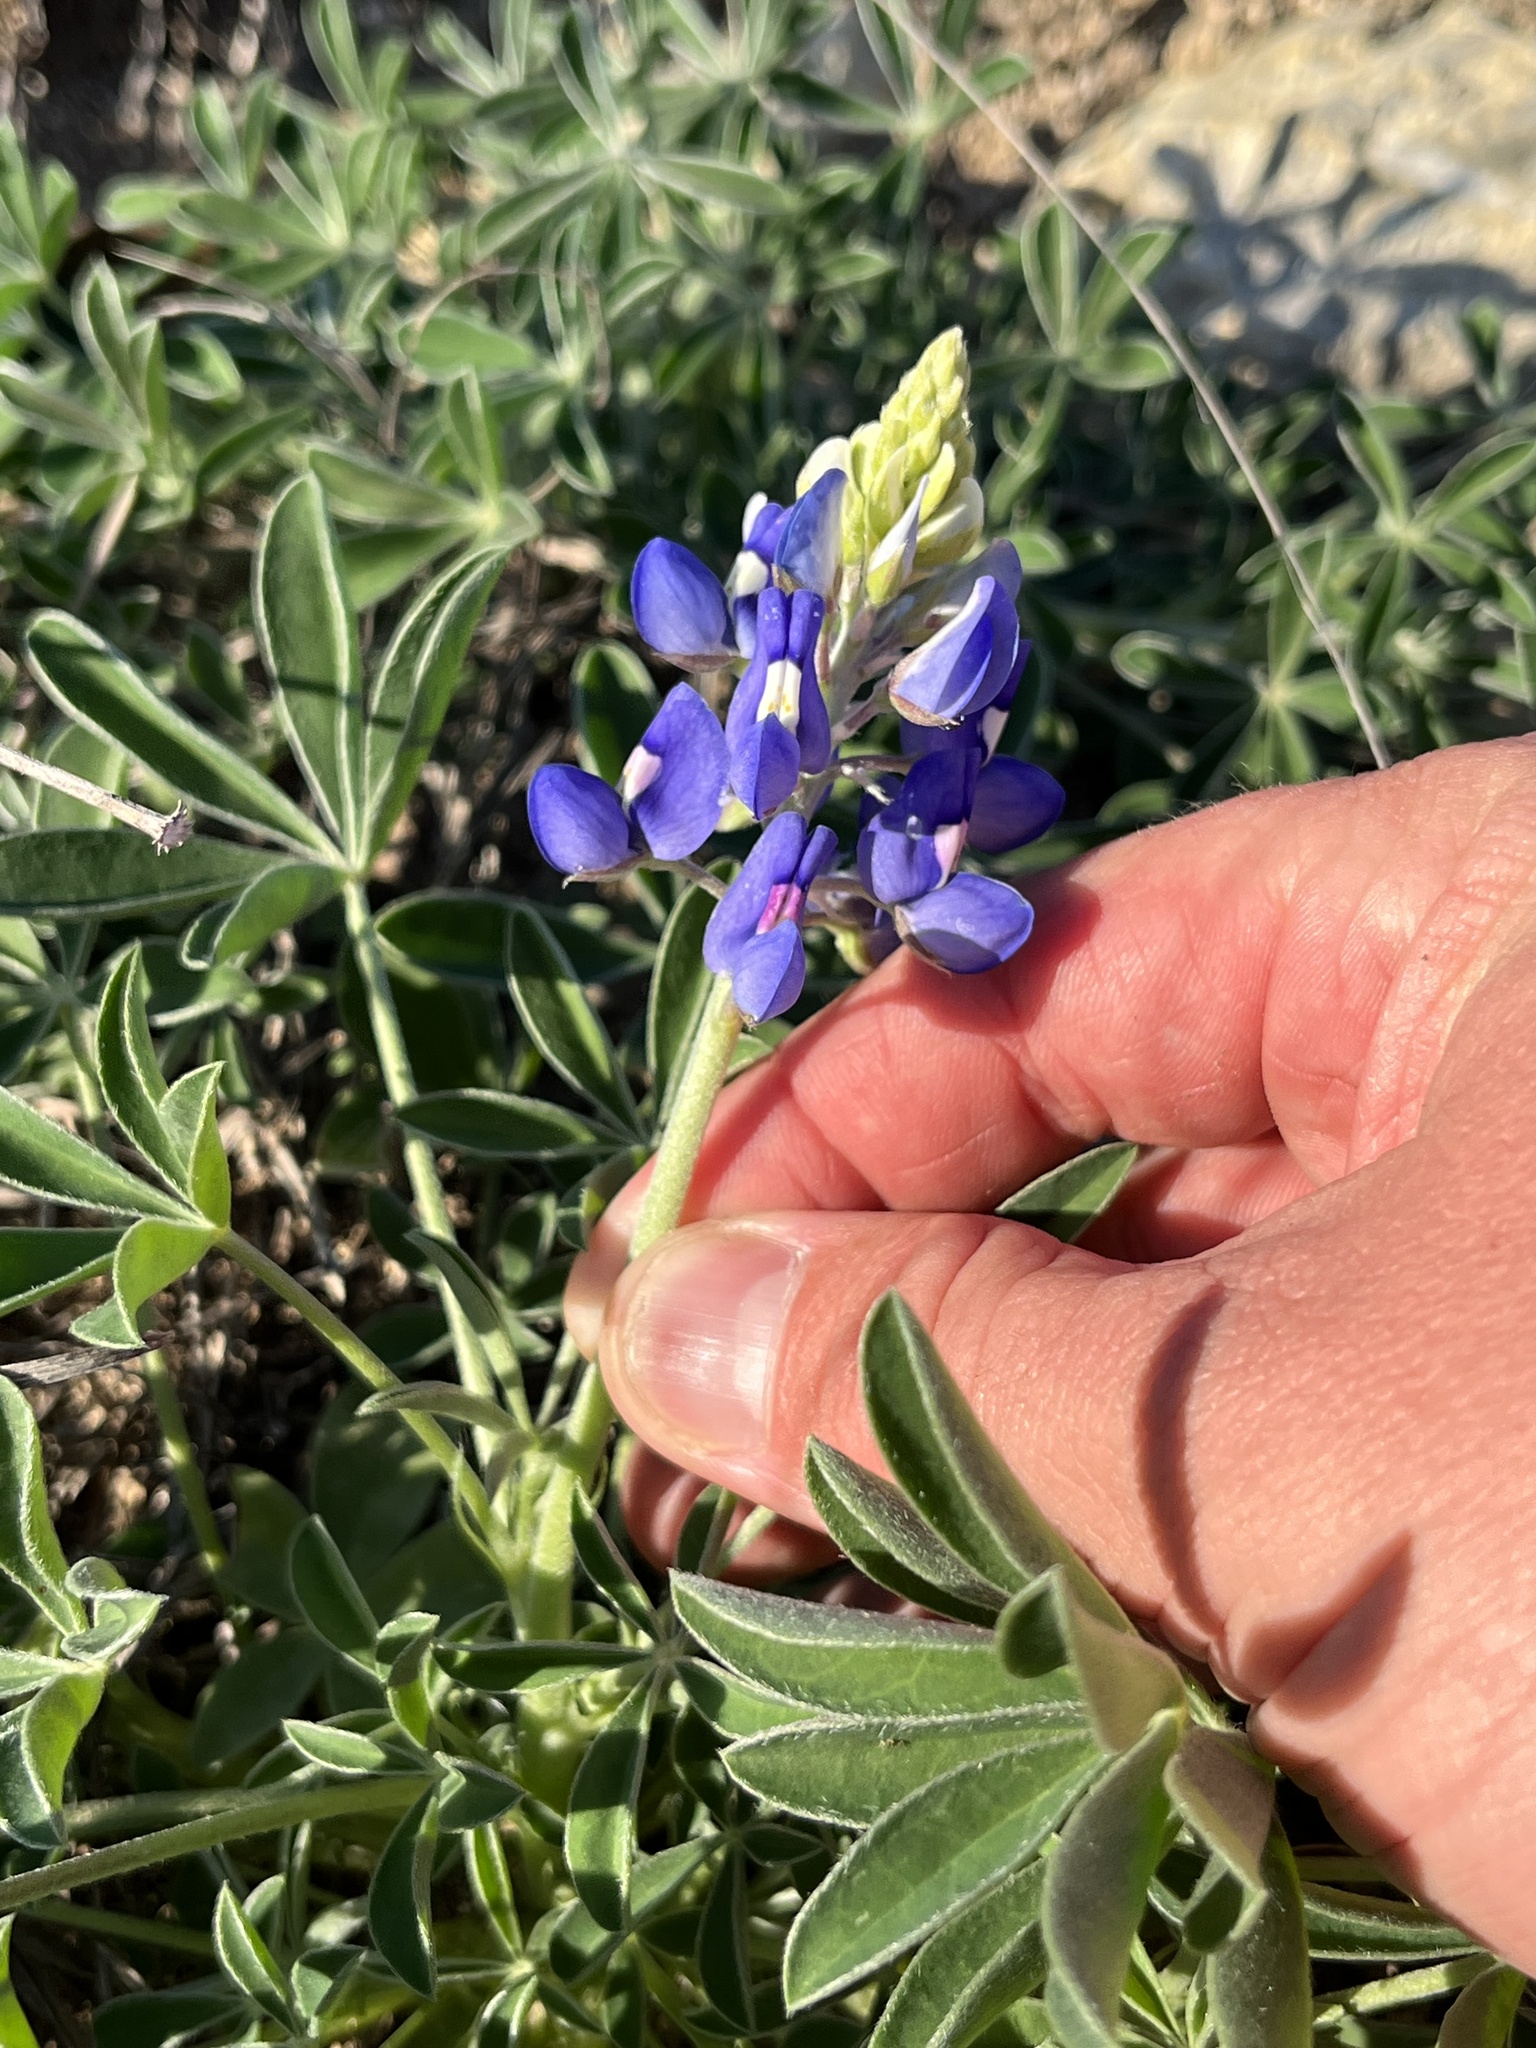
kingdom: Plantae
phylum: Tracheophyta
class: Magnoliopsida
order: Fabales
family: Fabaceae
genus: Lupinus
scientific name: Lupinus texensis
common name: Texas bluebonnet
